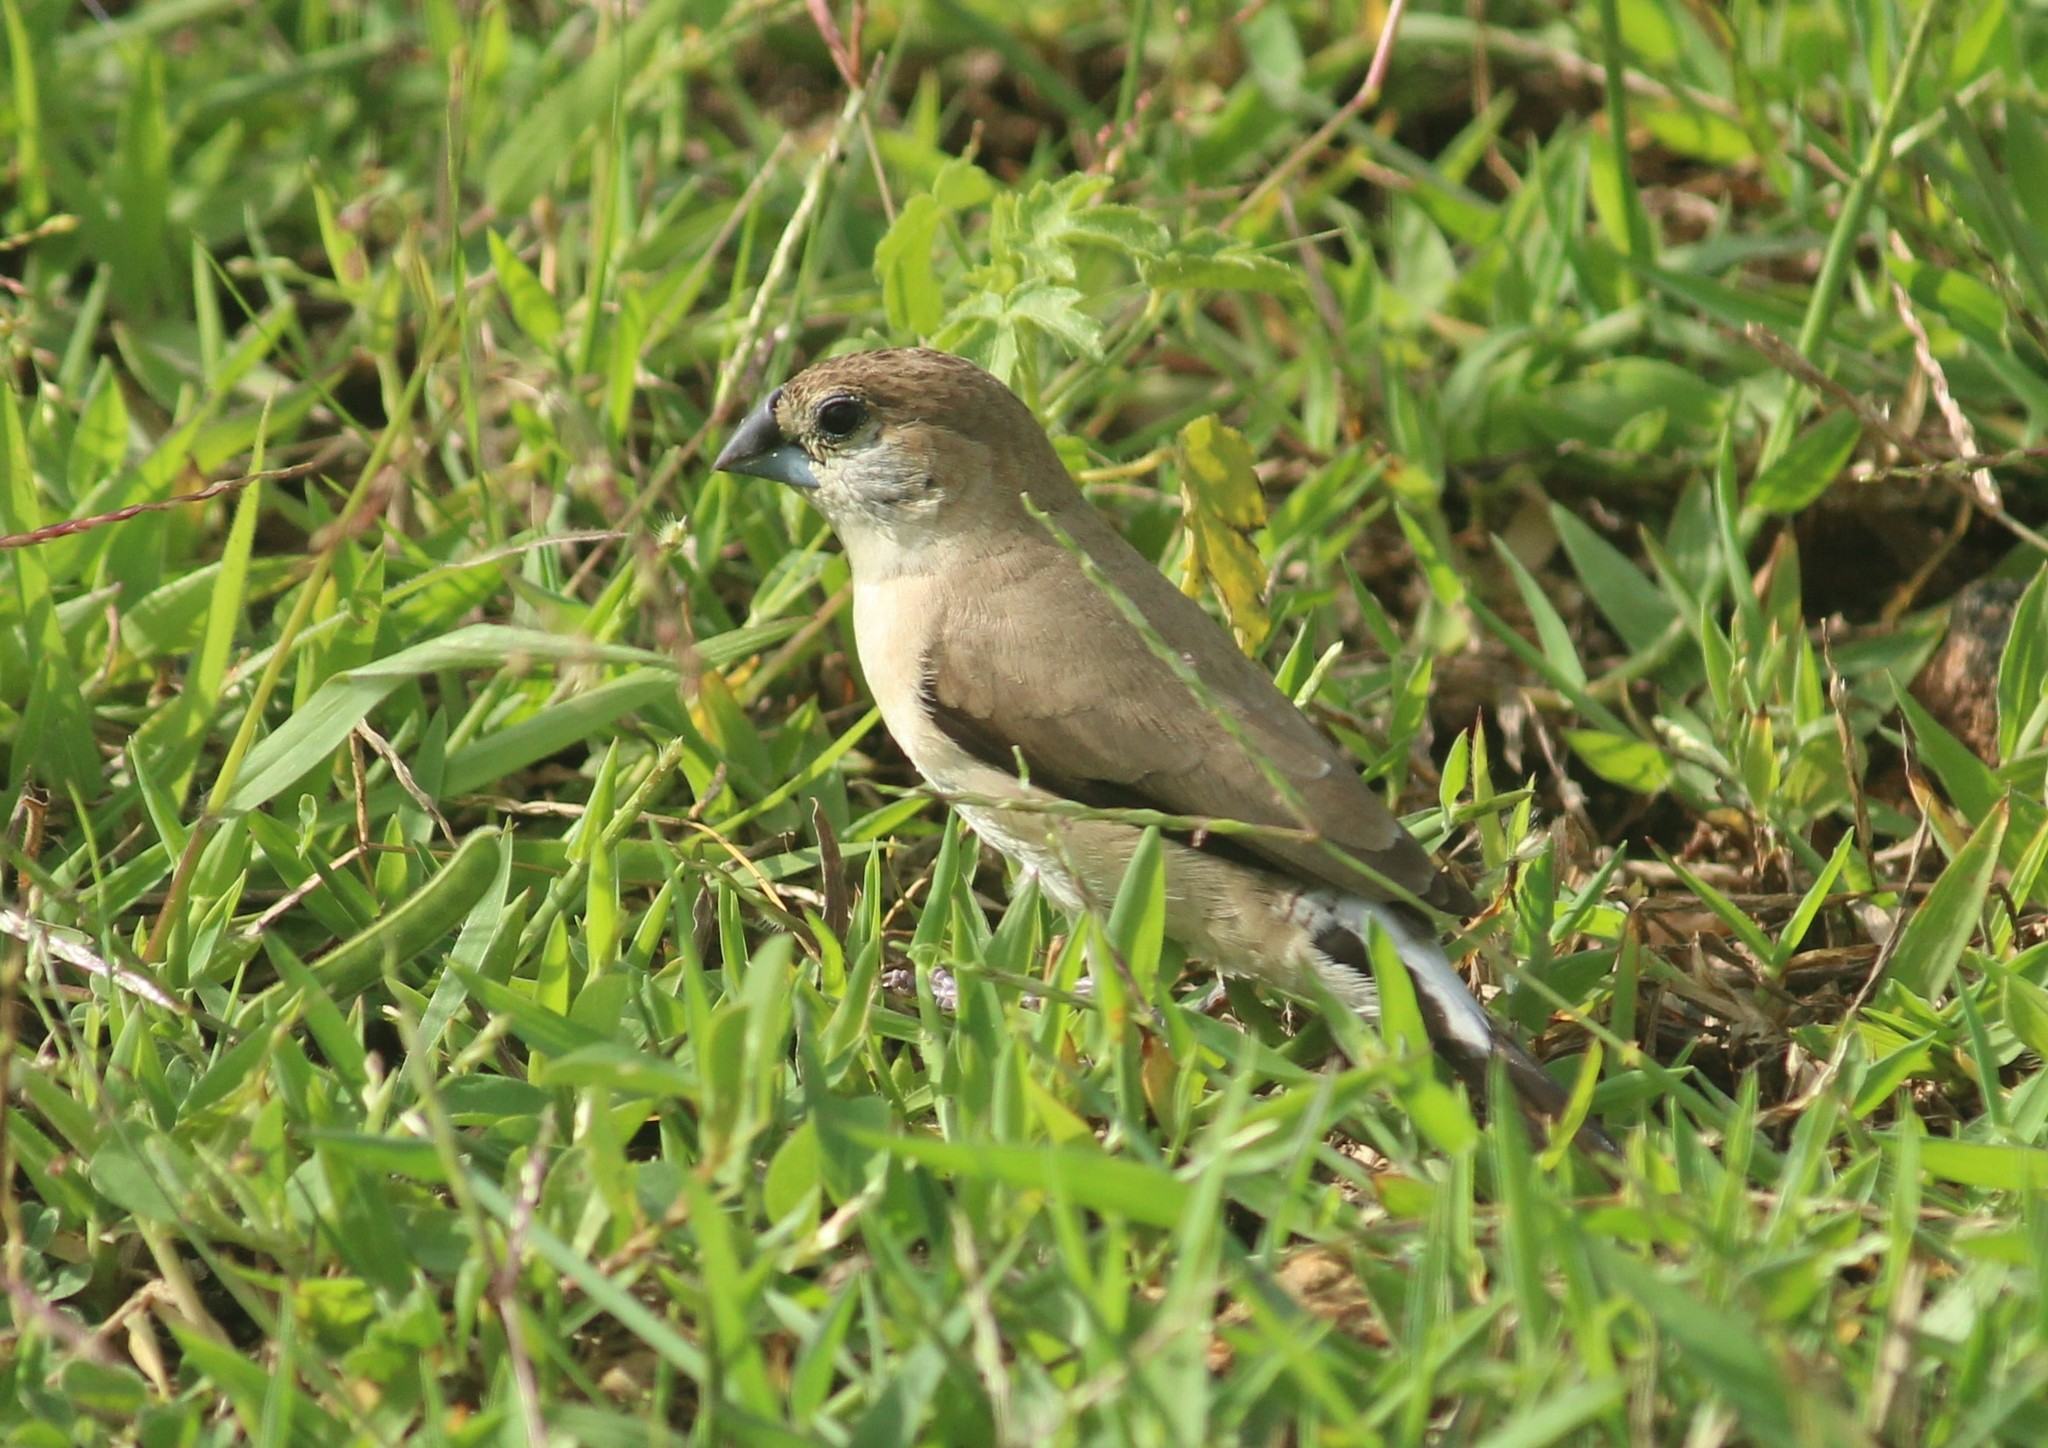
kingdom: Animalia
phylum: Chordata
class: Aves
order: Passeriformes
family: Estrildidae
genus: Euodice
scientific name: Euodice malabarica
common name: Indian silverbill
